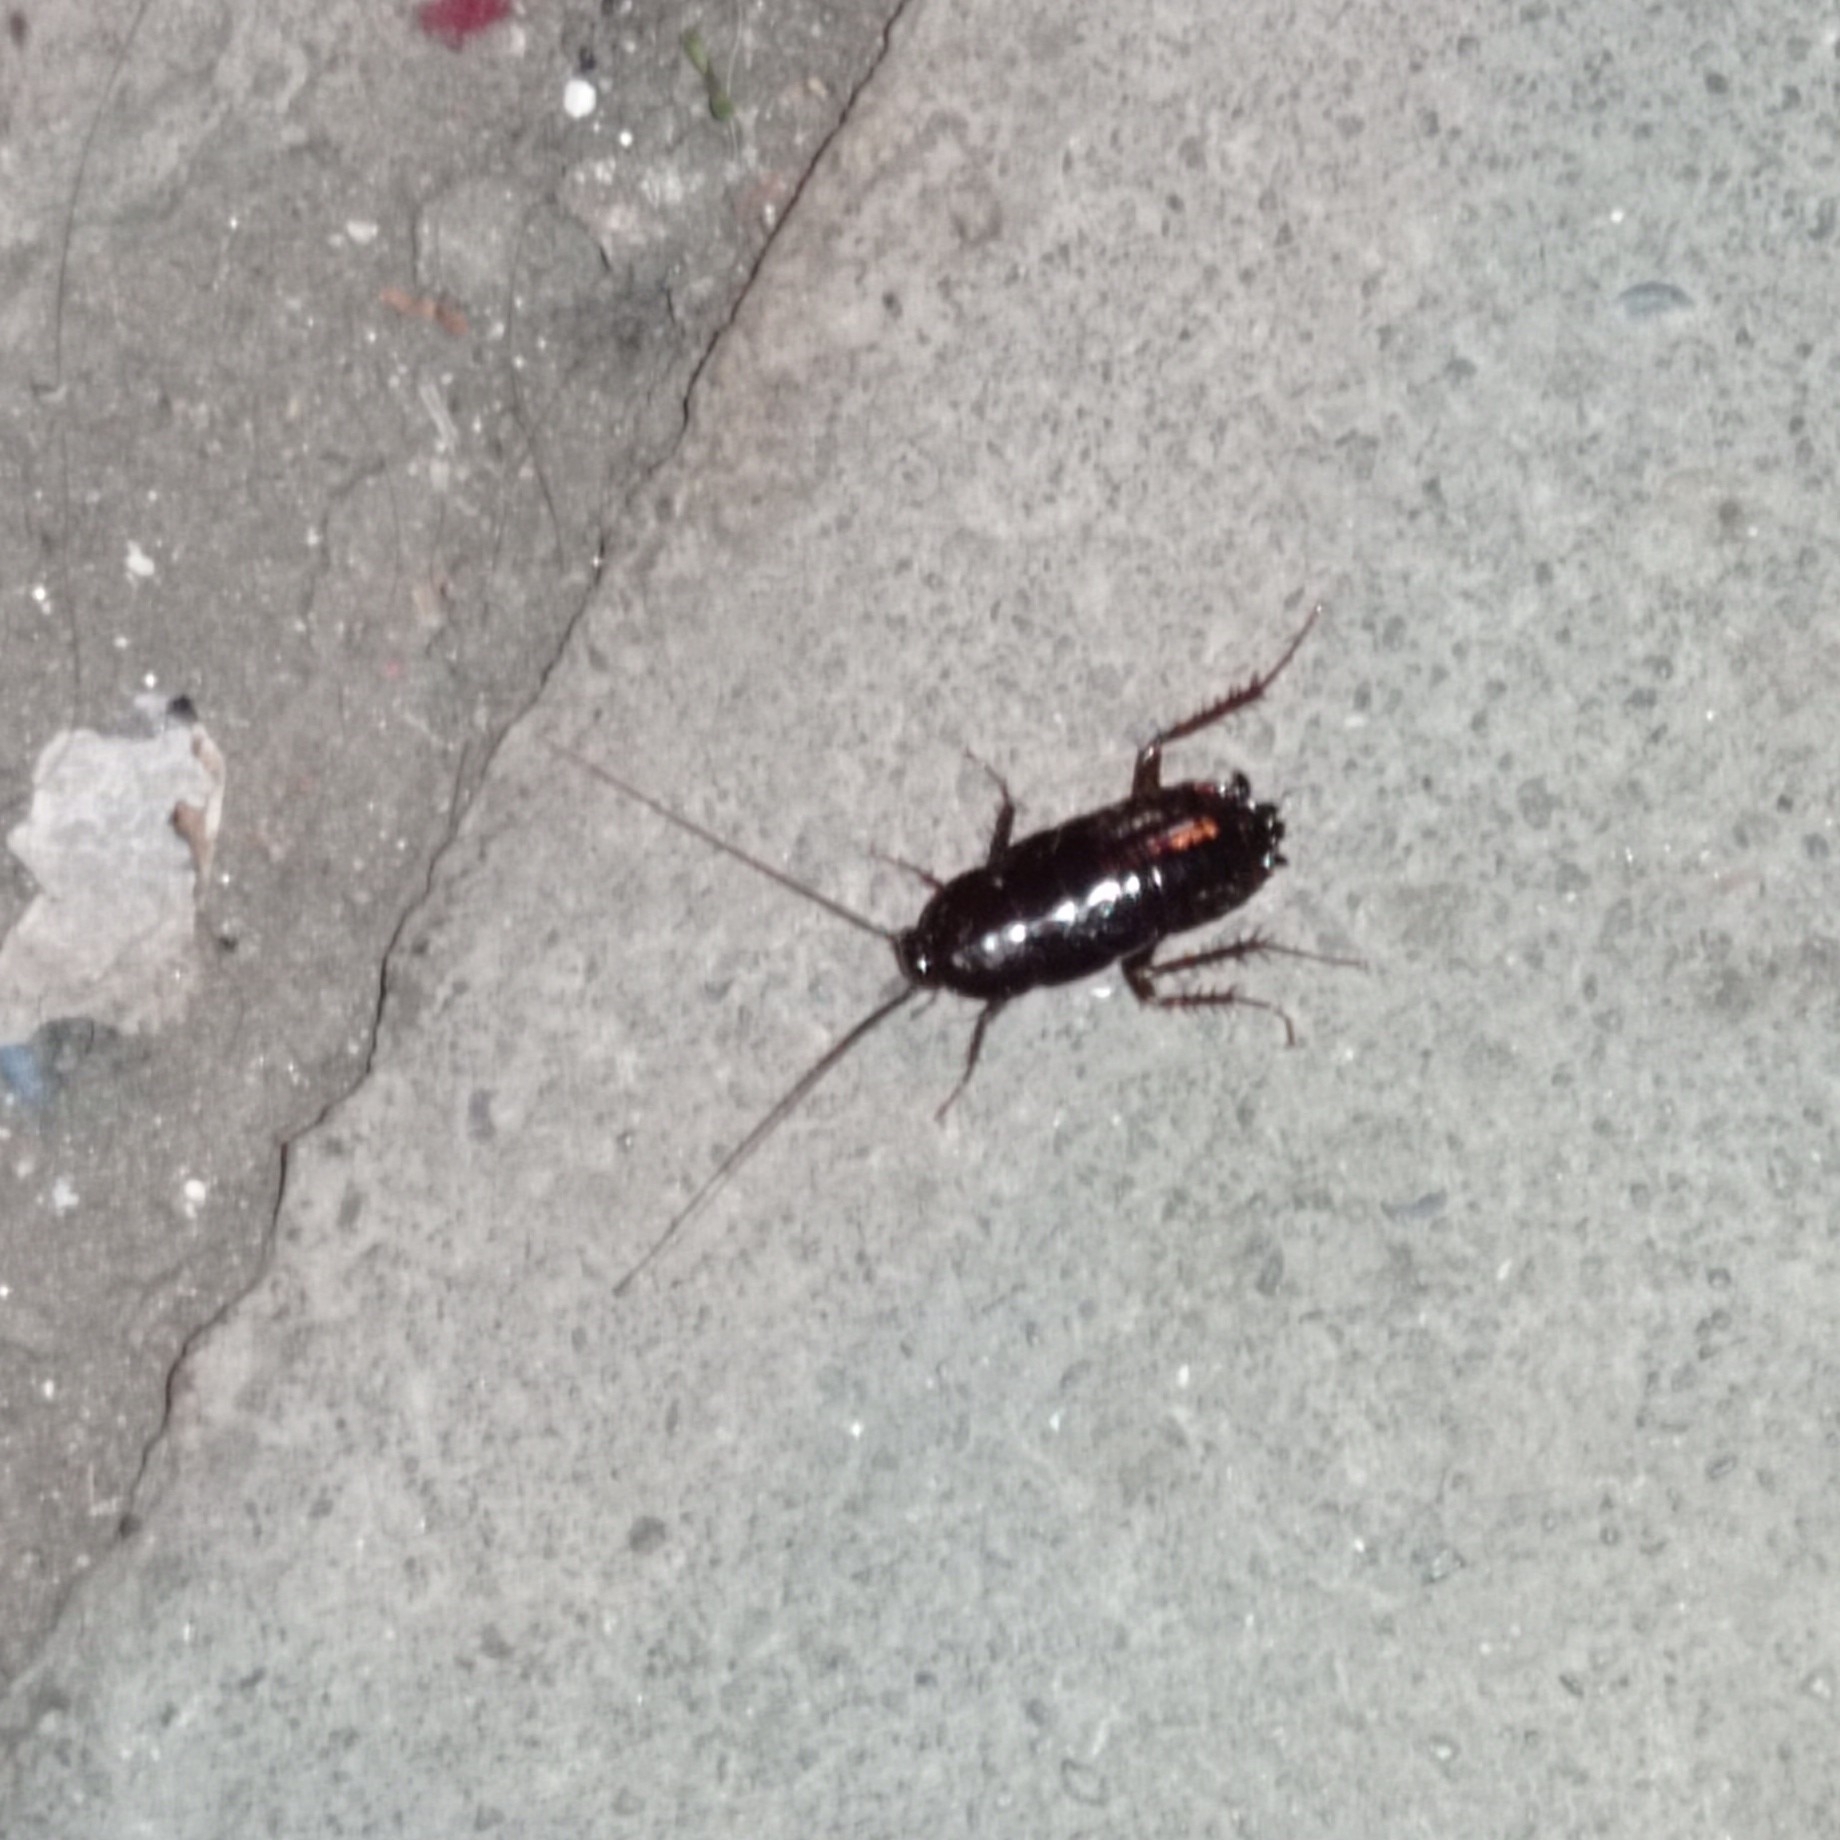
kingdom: Animalia
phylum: Arthropoda
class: Insecta
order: Blattodea
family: Blattidae
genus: Blatta
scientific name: Blatta orientalis
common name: Oriental cockroach
